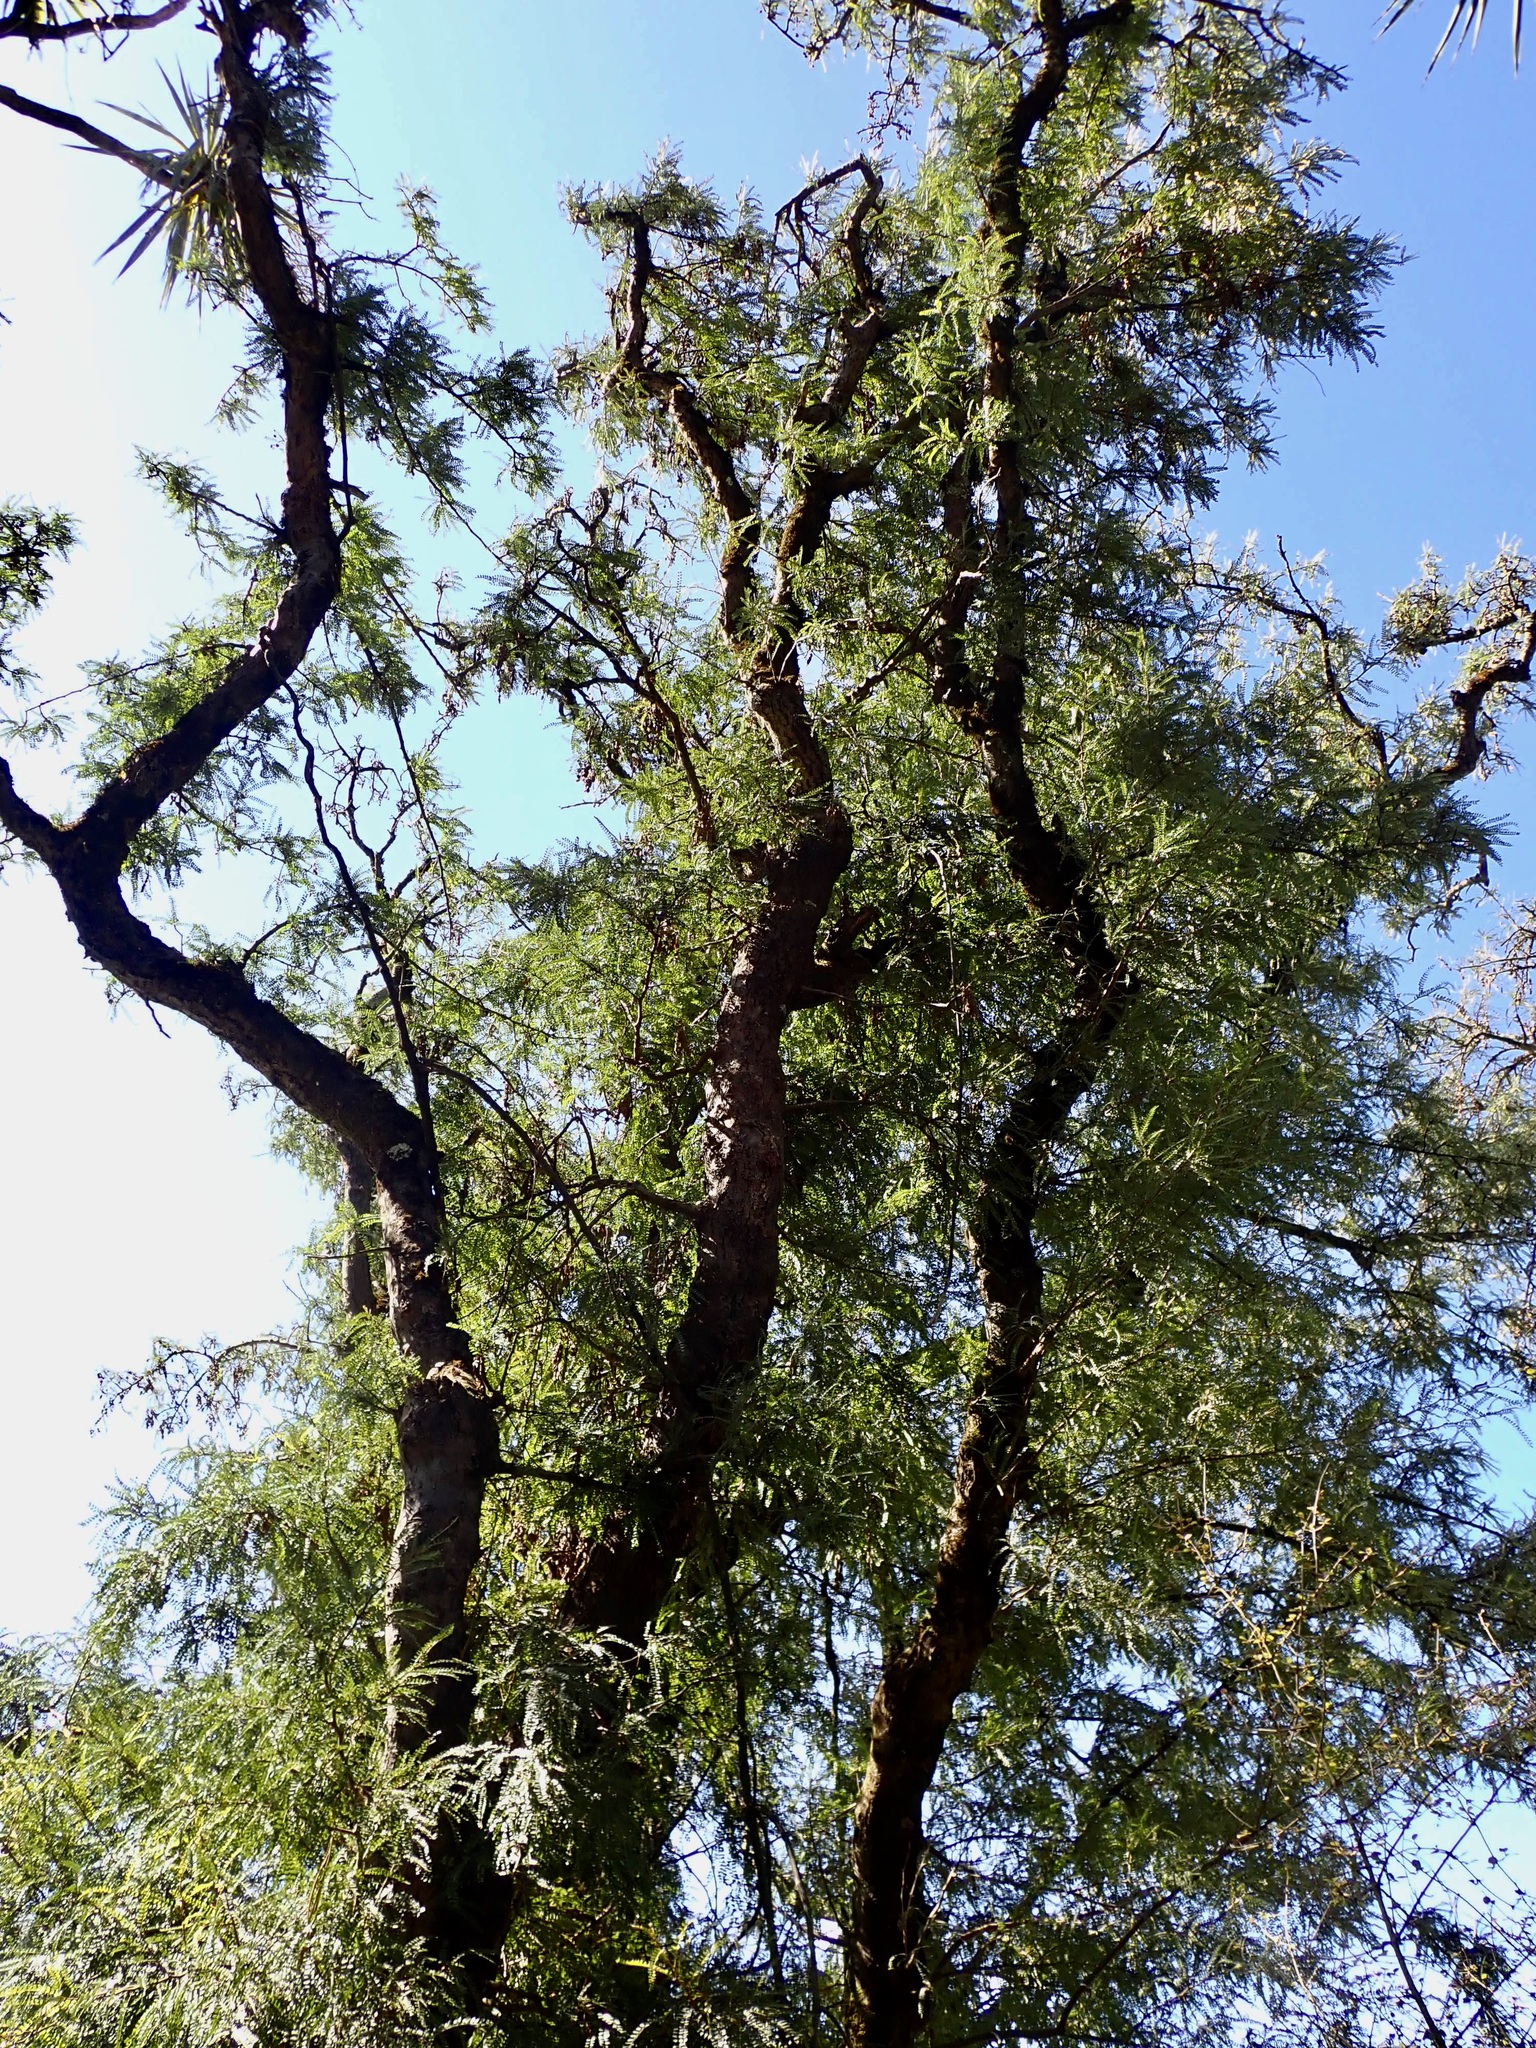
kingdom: Plantae
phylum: Tracheophyta
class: Magnoliopsida
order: Fabales
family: Fabaceae
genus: Sophora
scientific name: Sophora microphylla
